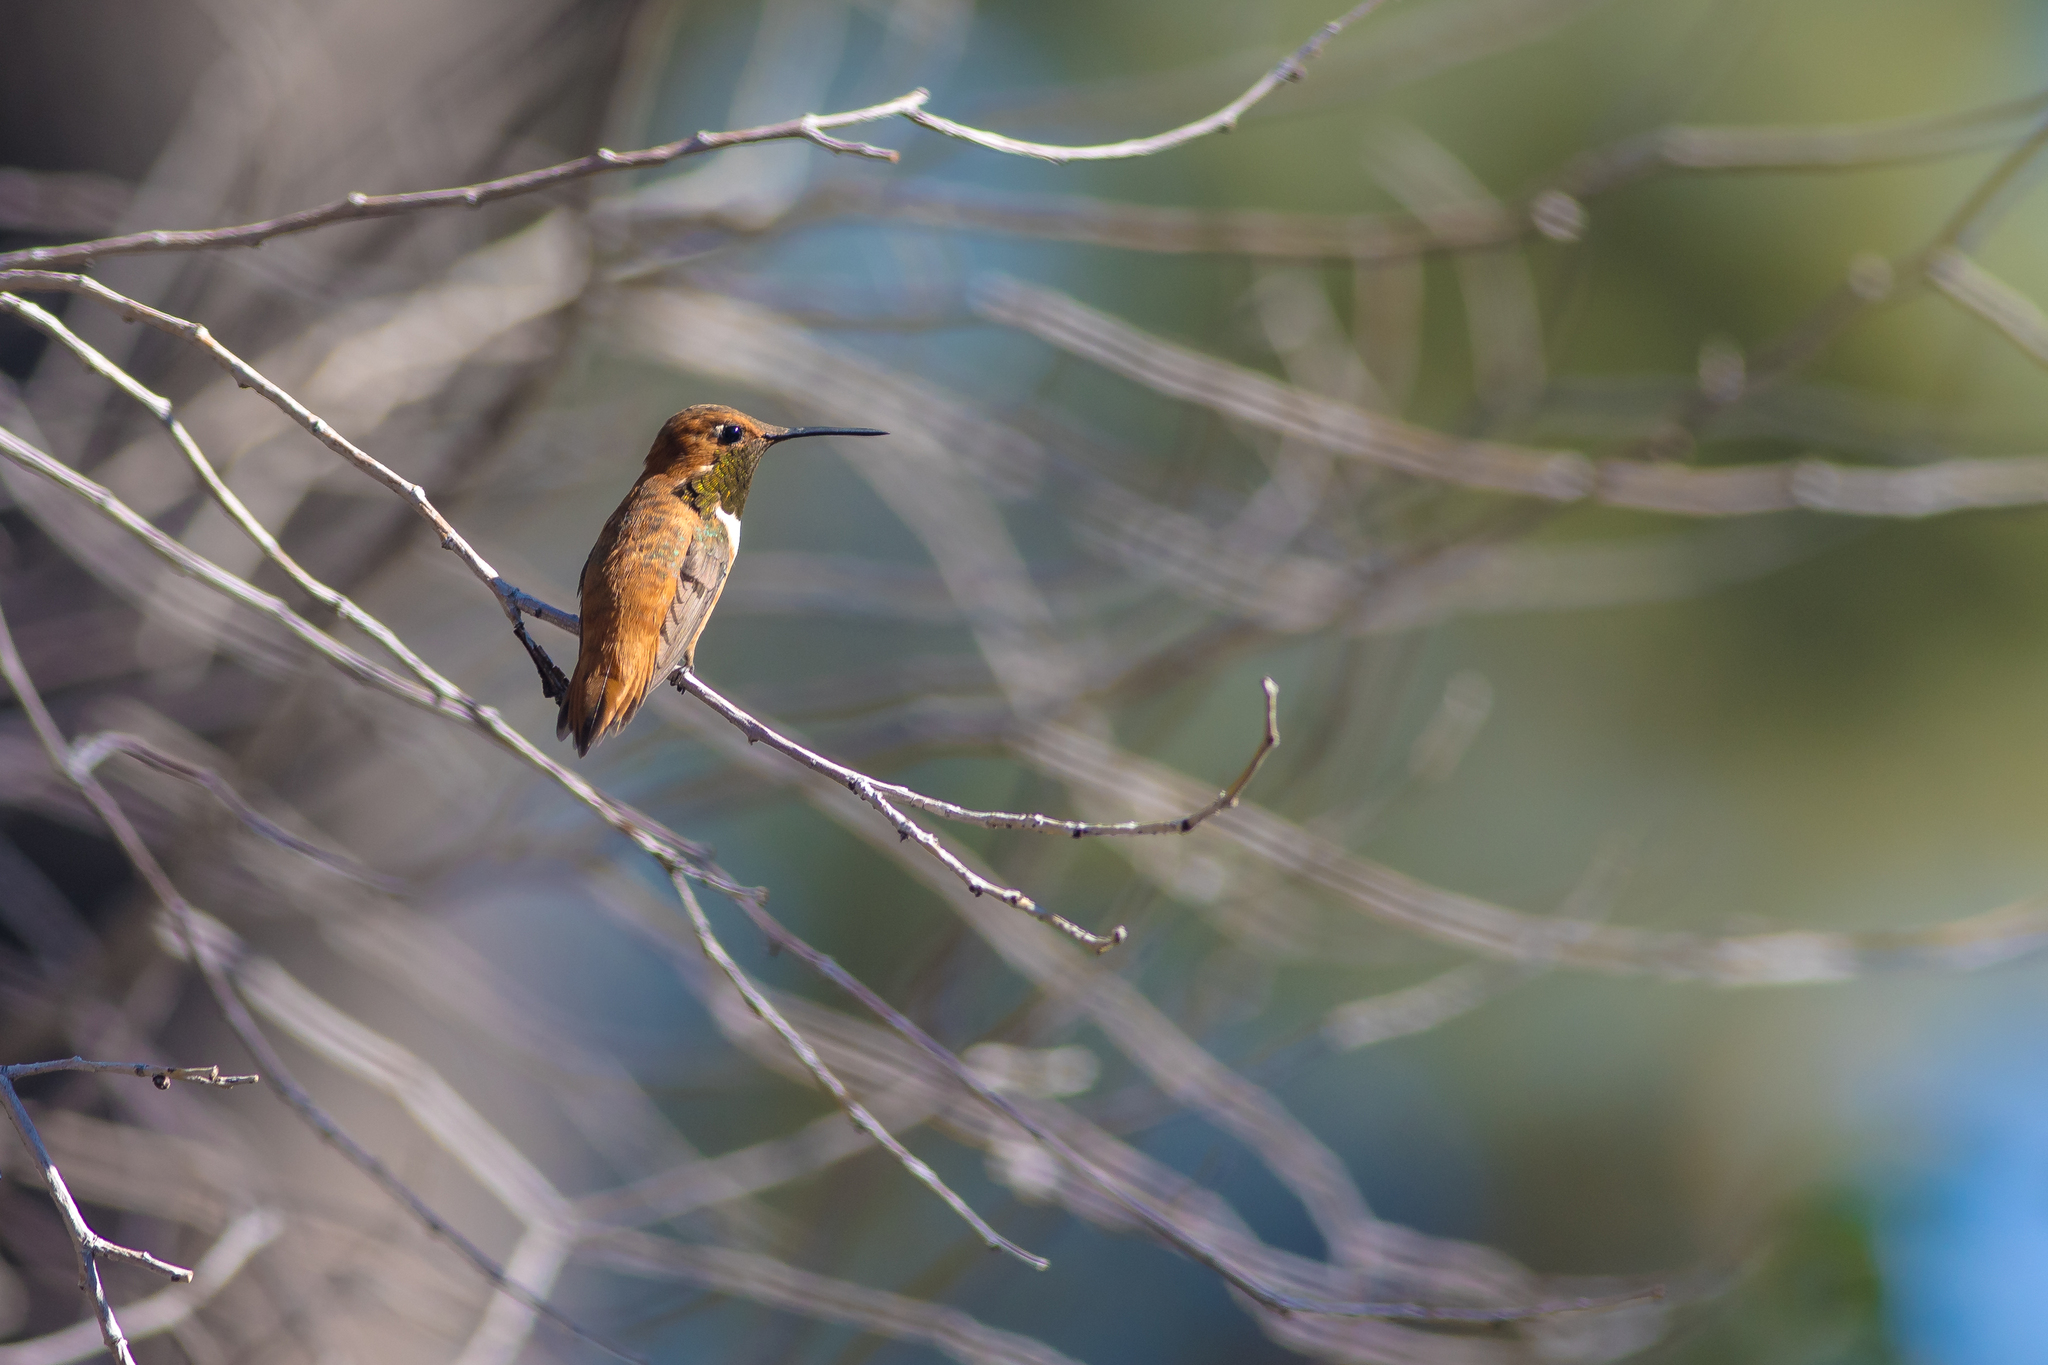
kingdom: Animalia
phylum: Chordata
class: Aves
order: Apodiformes
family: Trochilidae
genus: Selasphorus
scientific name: Selasphorus rufus
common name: Rufous hummingbird
